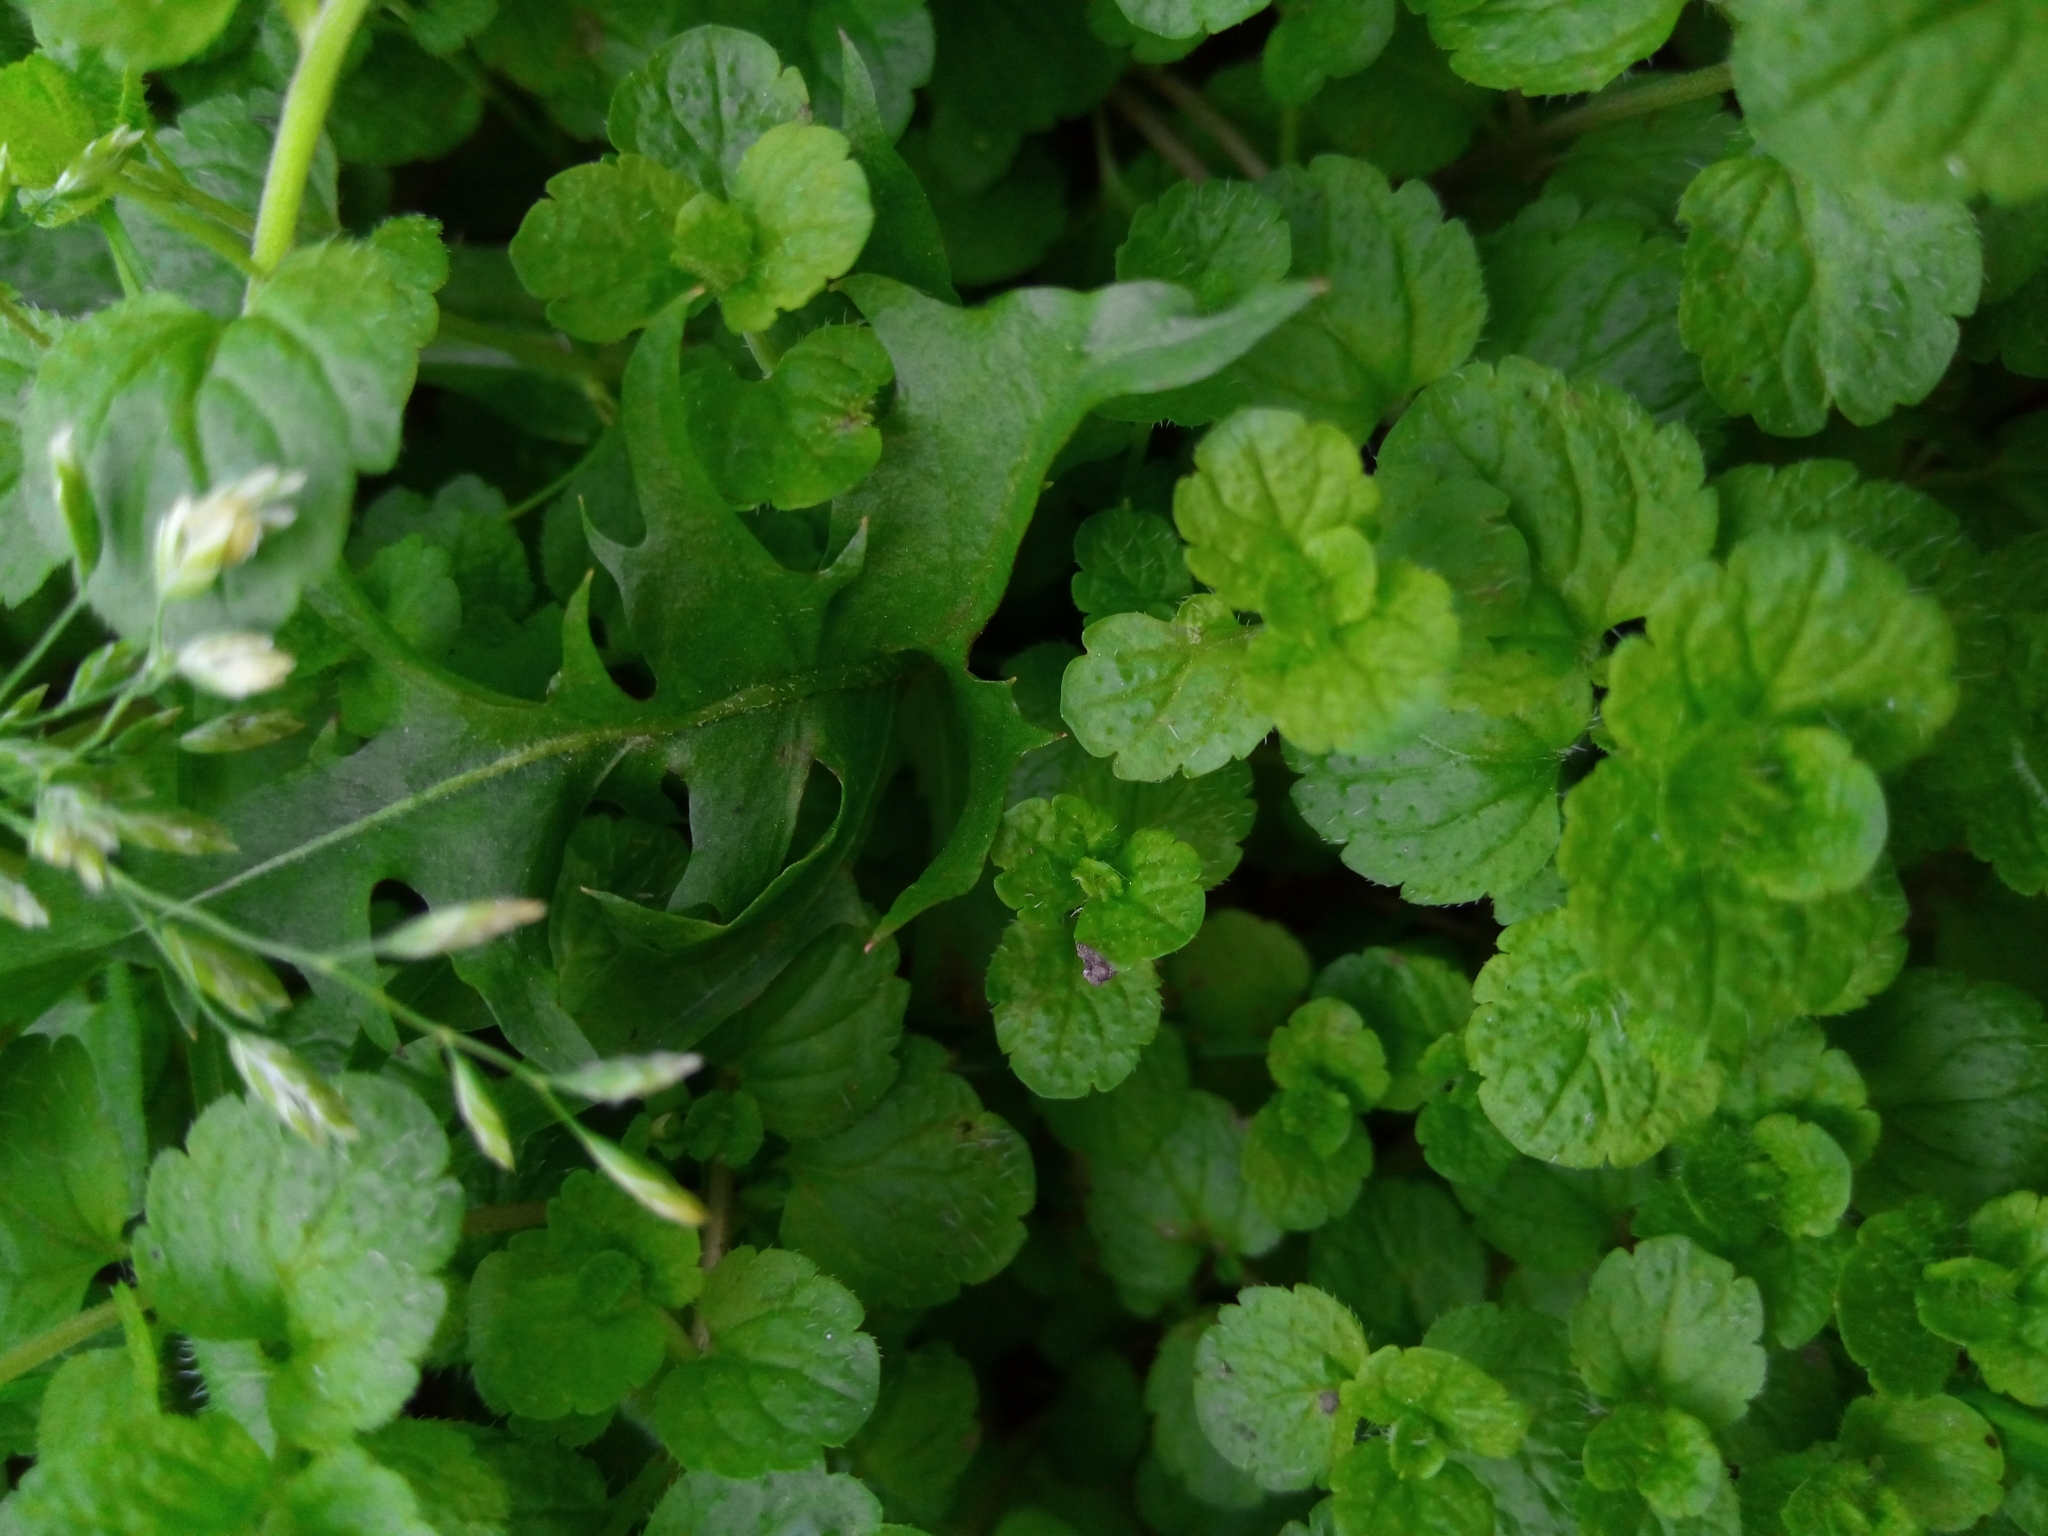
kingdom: Plantae
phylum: Tracheophyta
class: Magnoliopsida
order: Lamiales
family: Plantaginaceae
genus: Veronica
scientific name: Veronica filiformis
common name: Slender speedwell
